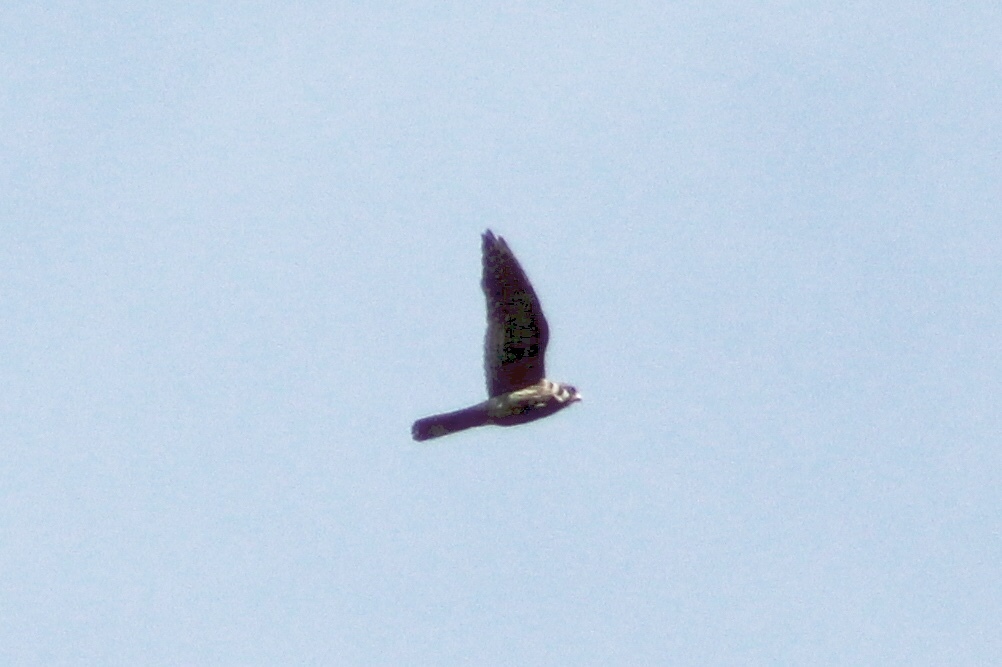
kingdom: Animalia
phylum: Chordata
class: Aves
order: Falconiformes
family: Falconidae
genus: Falco
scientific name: Falco sparverius
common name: American kestrel
